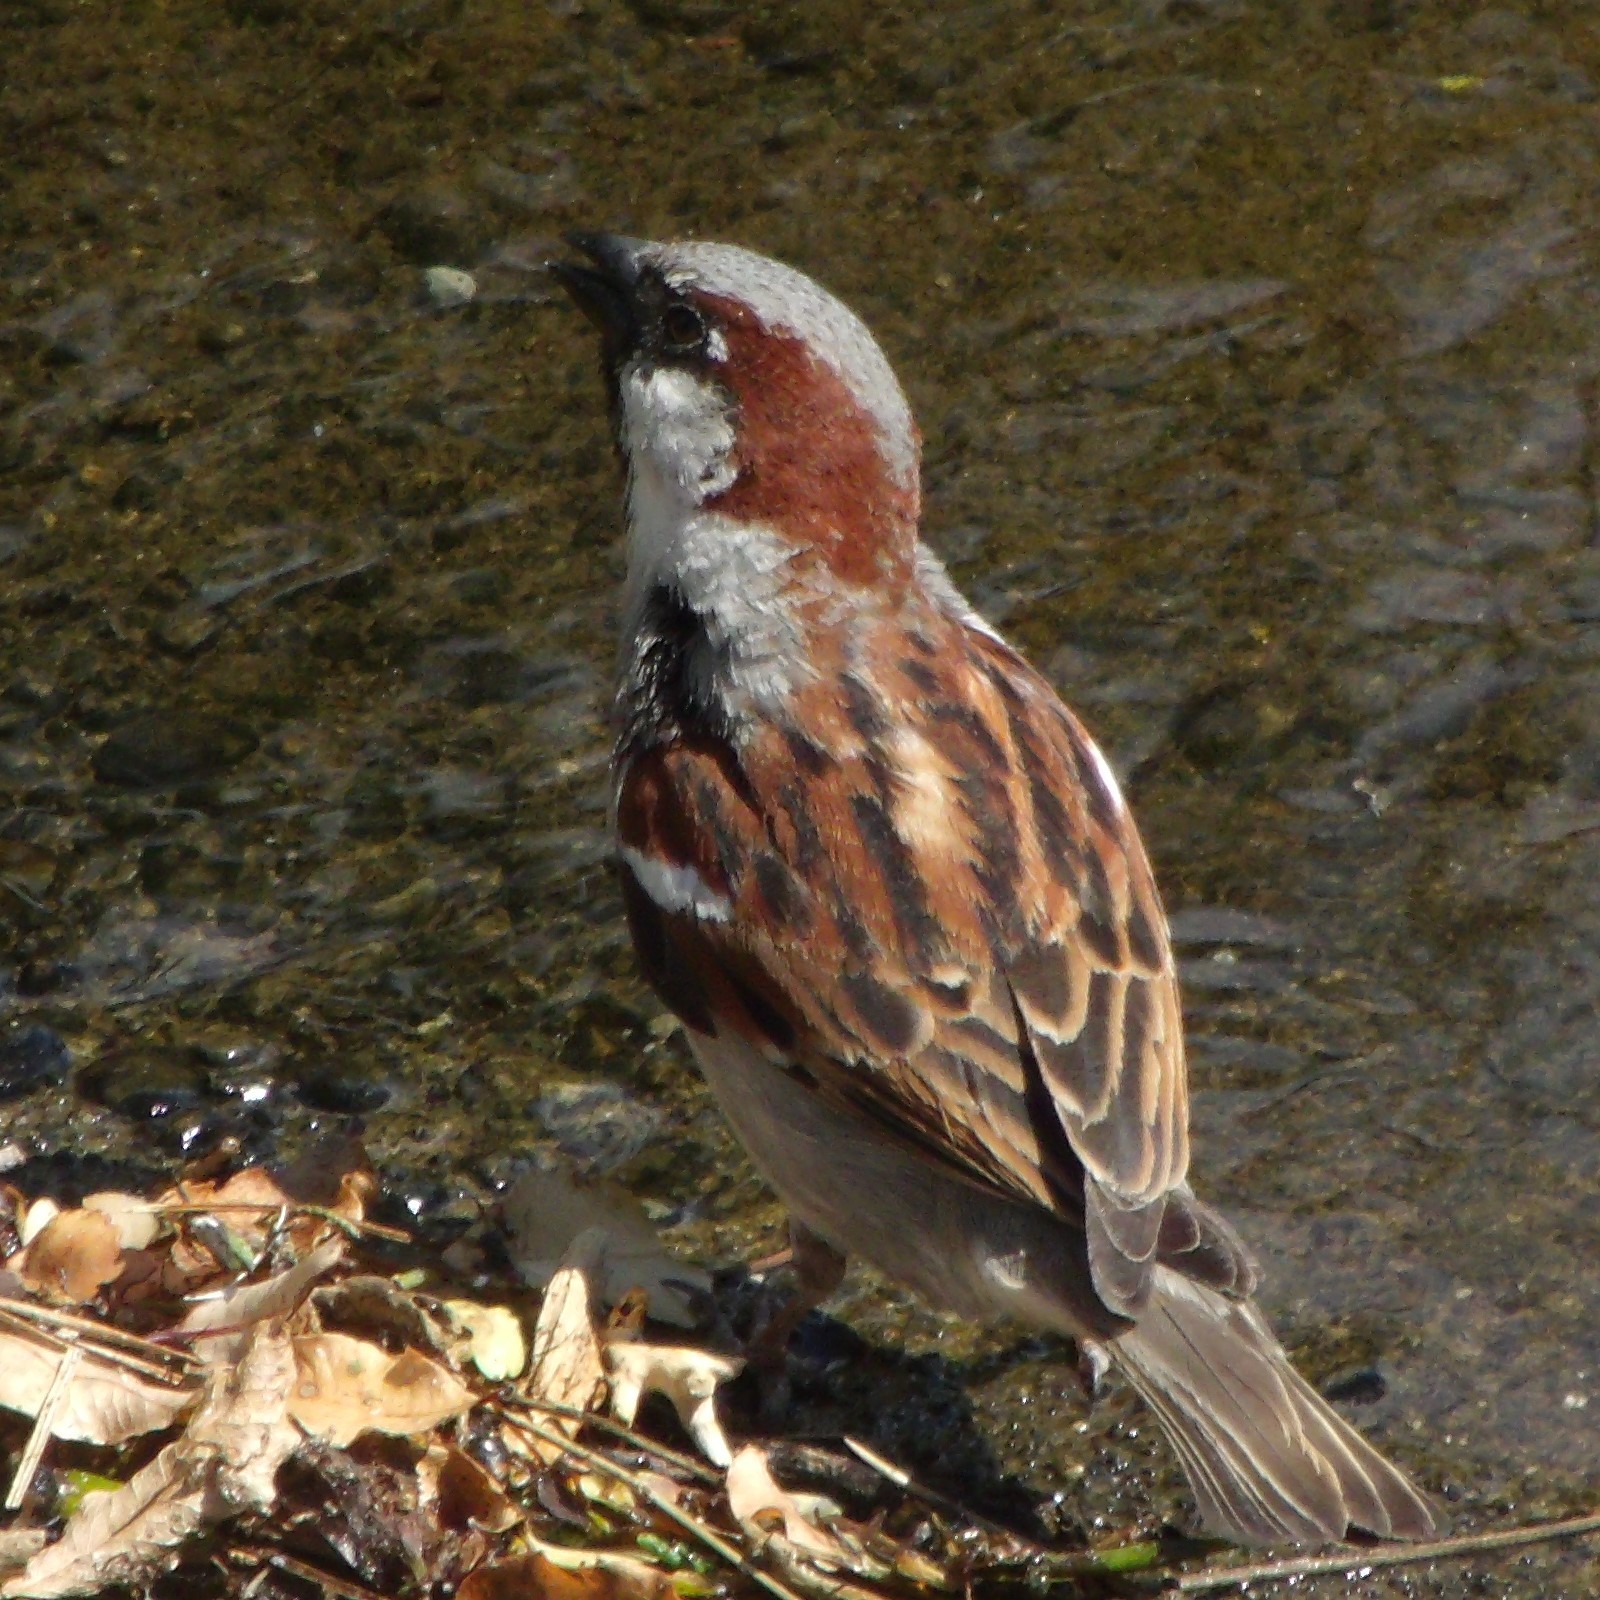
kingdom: Animalia
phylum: Chordata
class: Aves
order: Passeriformes
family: Passeridae
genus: Passer
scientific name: Passer domesticus
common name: House sparrow
